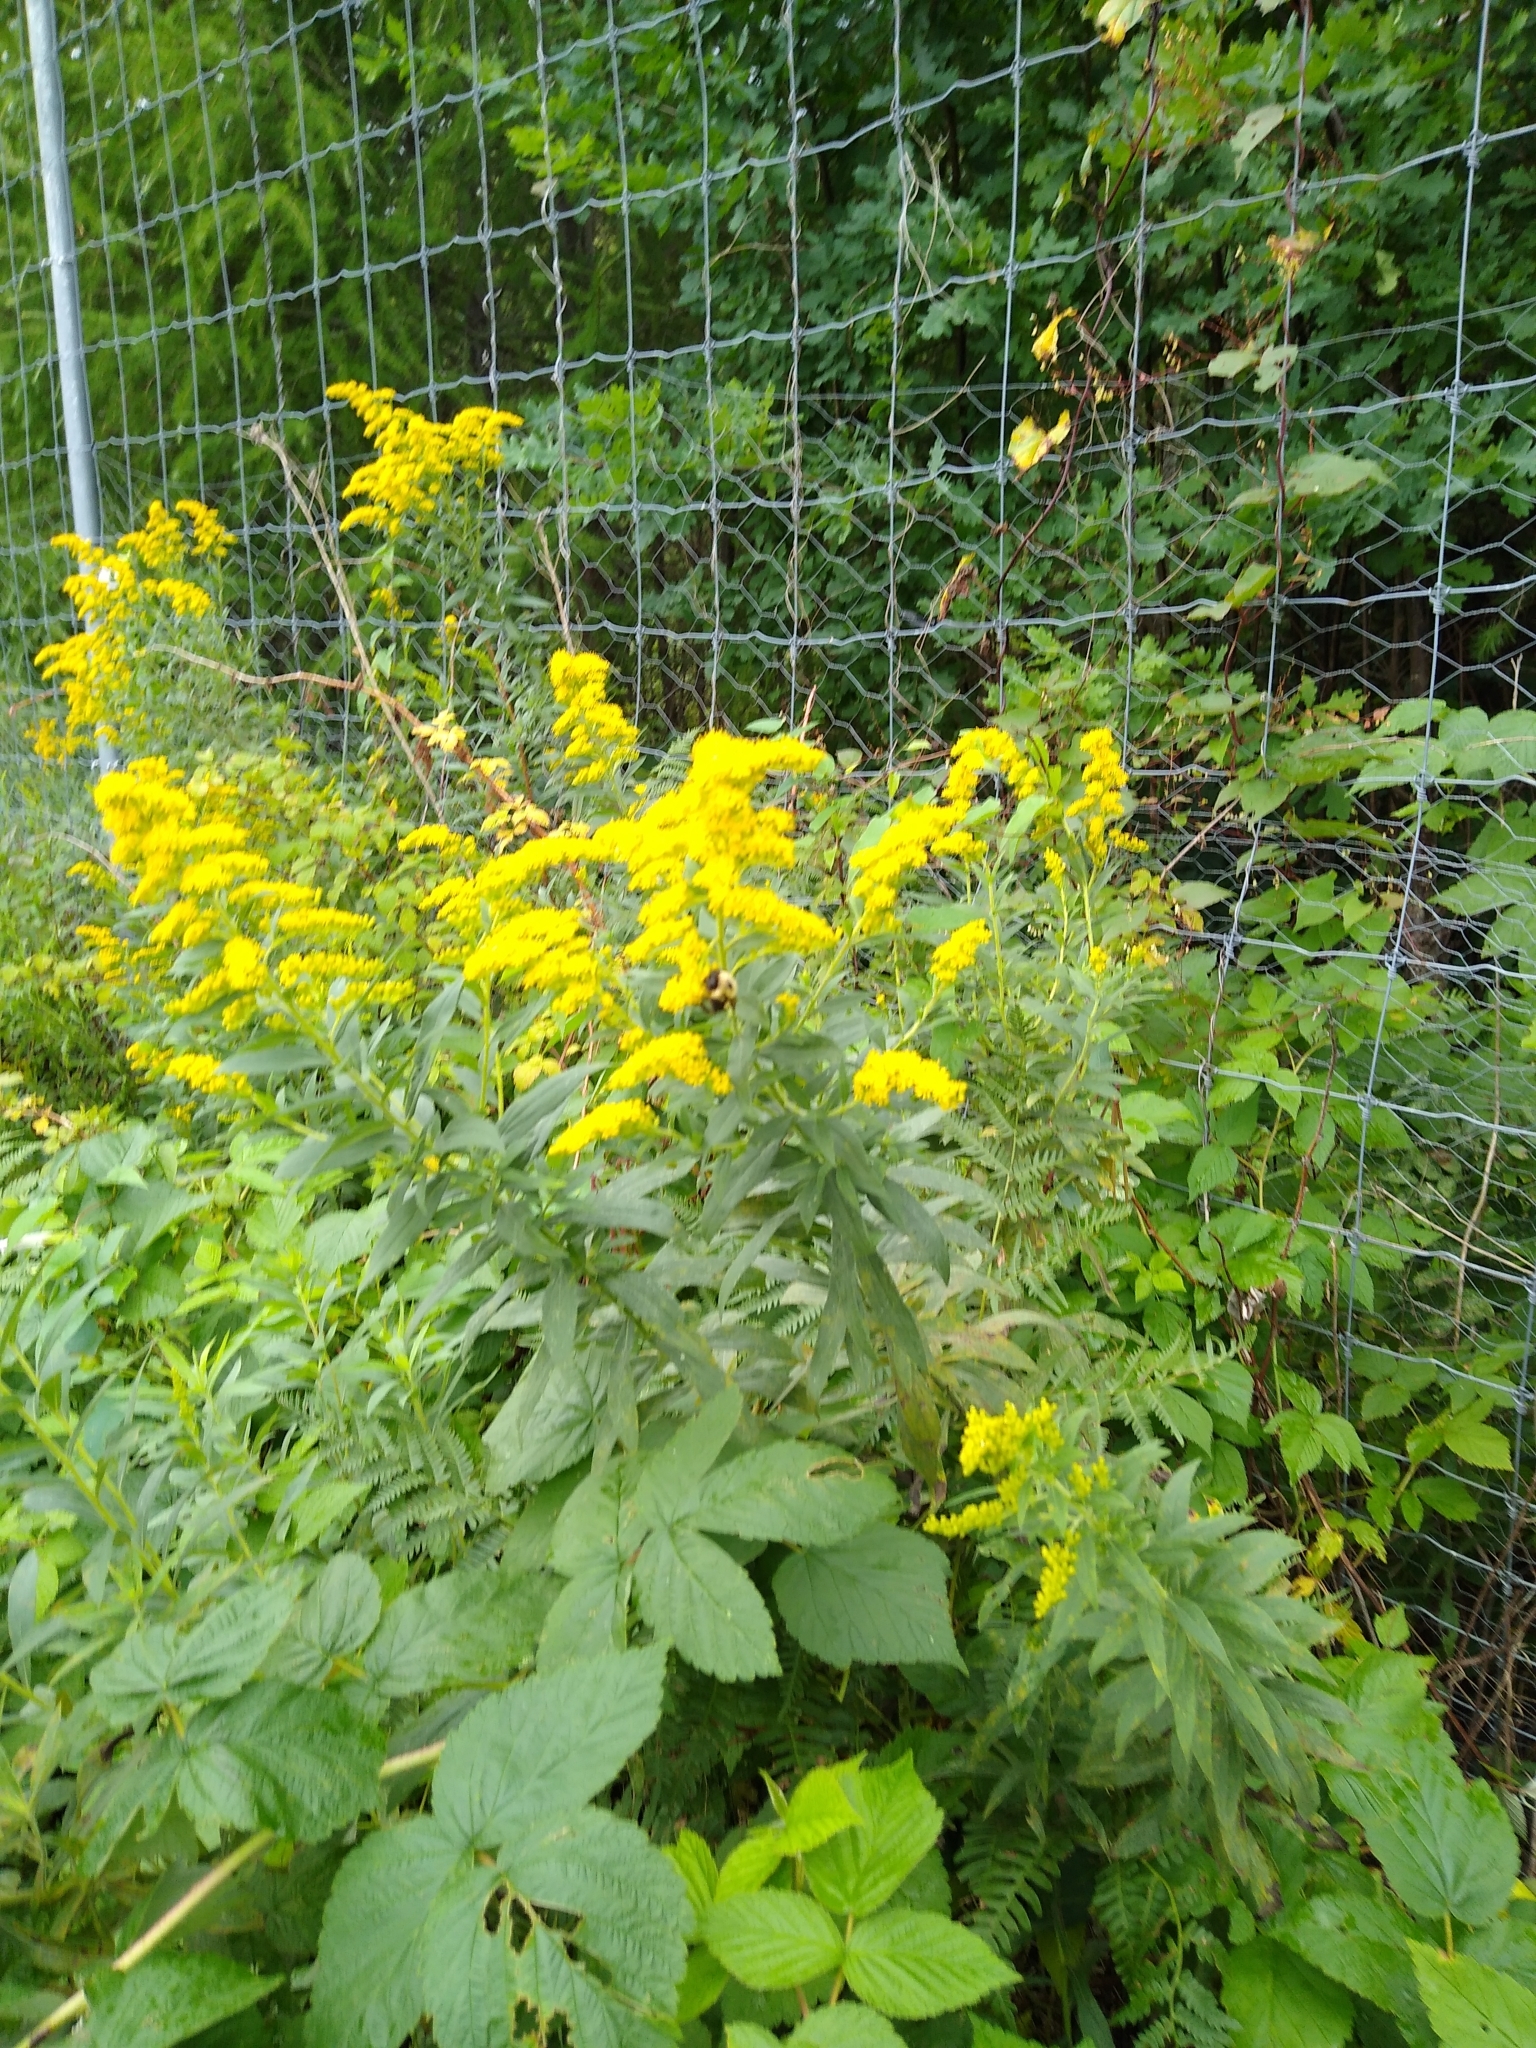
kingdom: Animalia
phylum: Arthropoda
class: Insecta
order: Hymenoptera
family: Apidae
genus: Bombus
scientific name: Bombus griseocollis
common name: Brown-belted bumble bee
